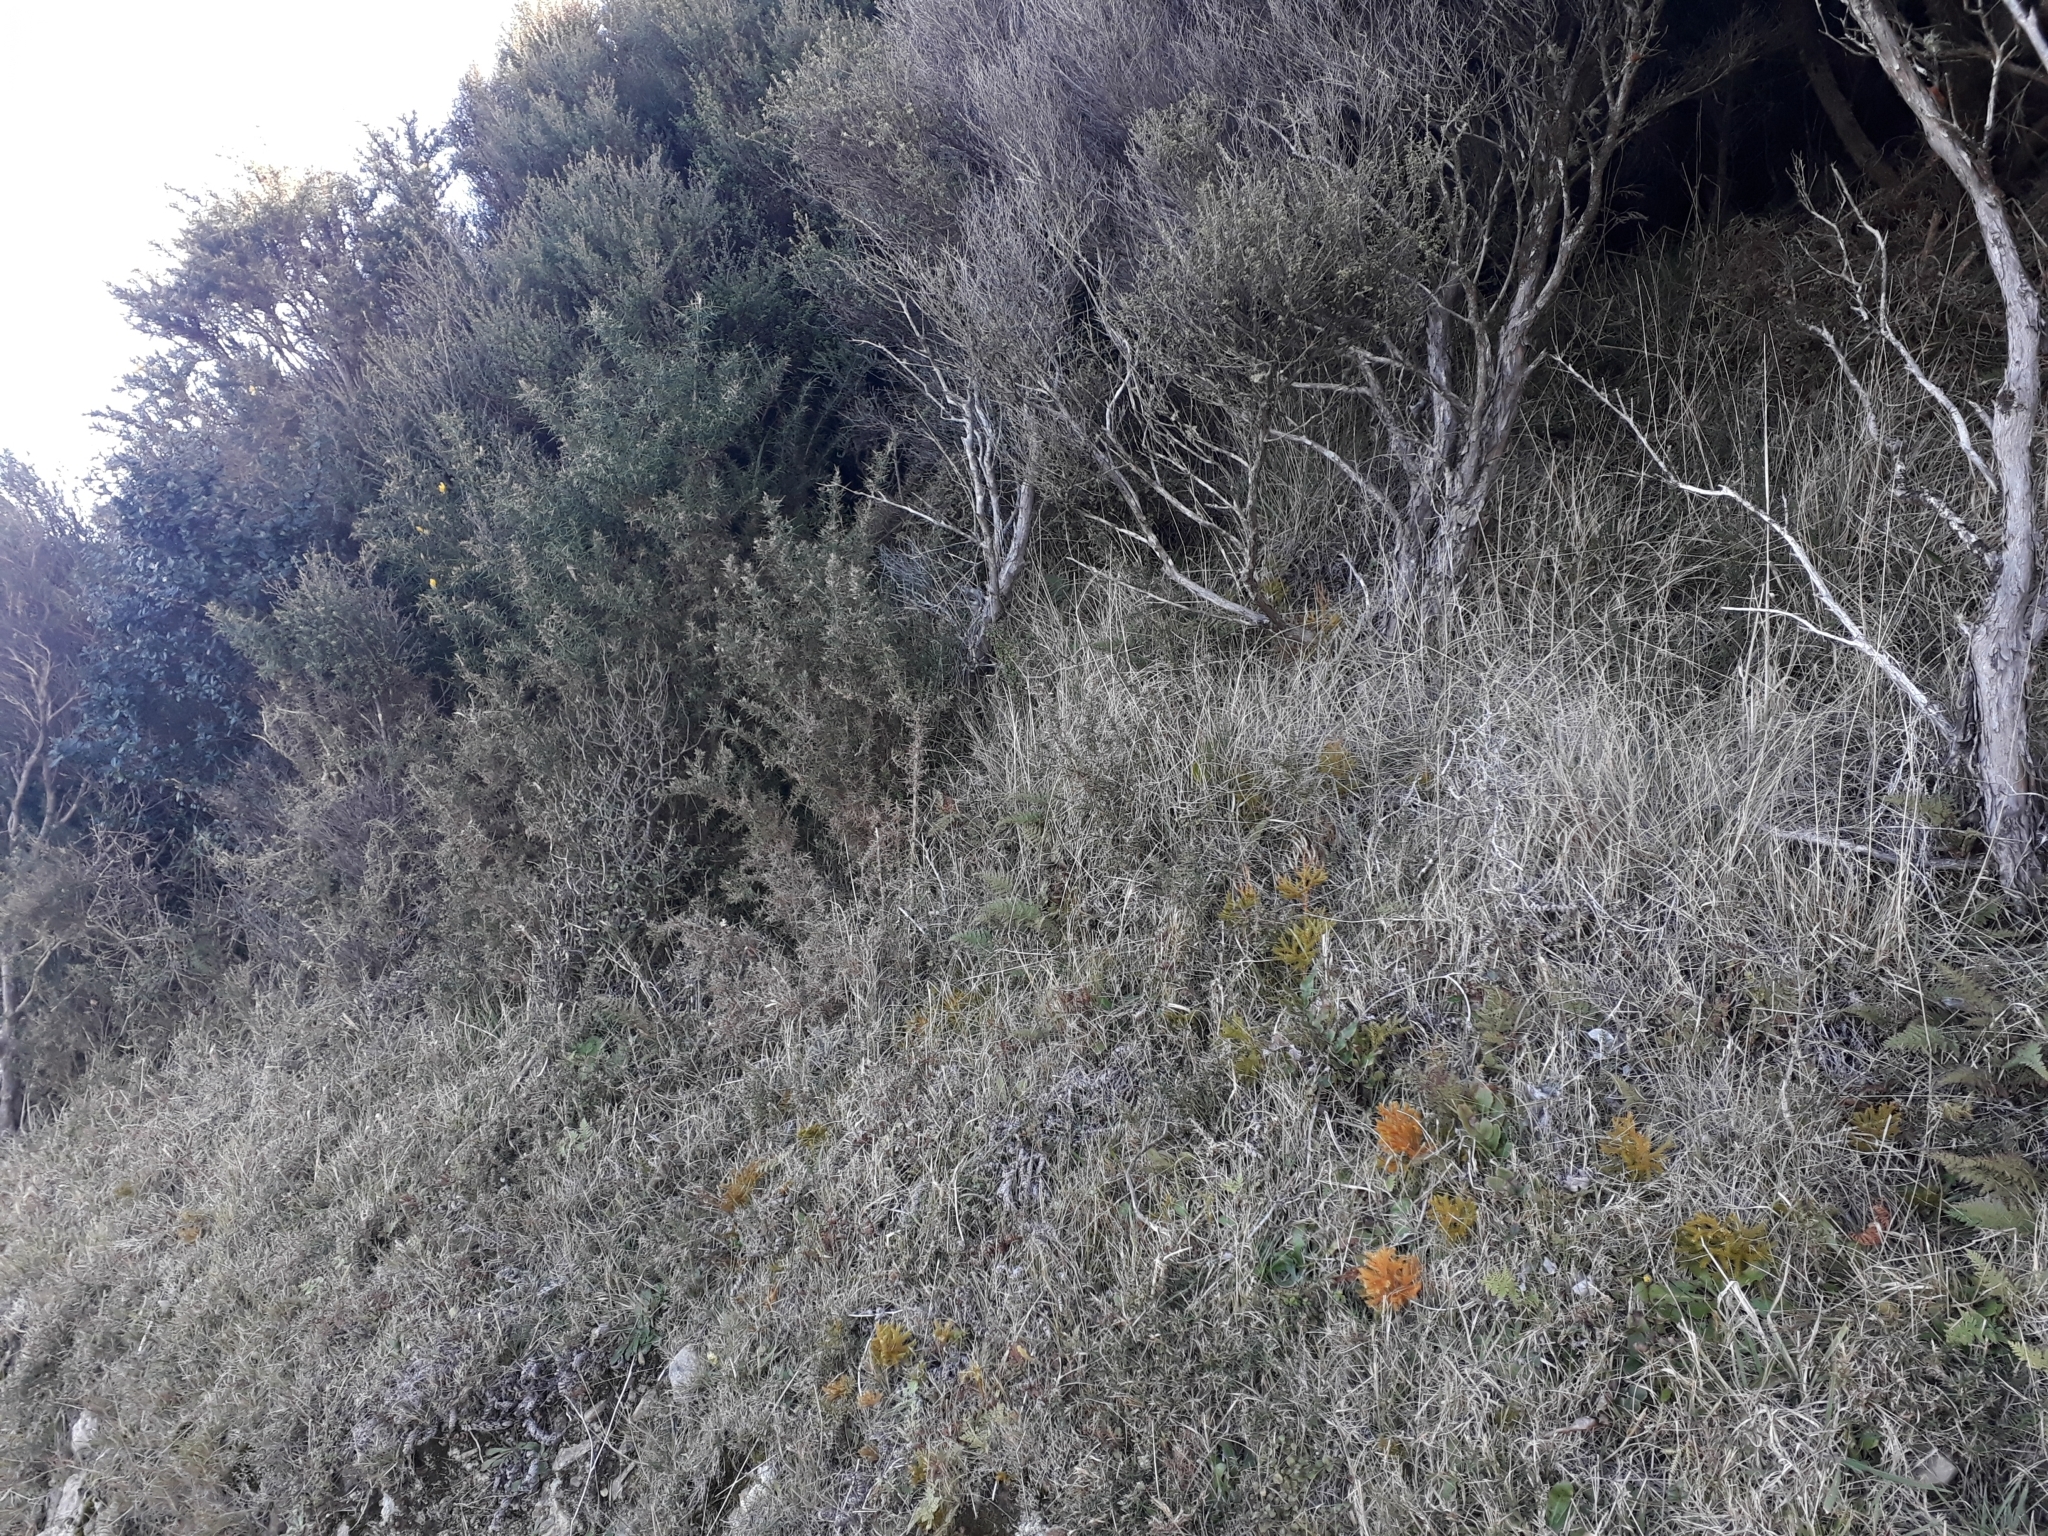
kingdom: Plantae
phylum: Tracheophyta
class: Lycopodiopsida
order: Lycopodiales
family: Lycopodiaceae
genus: Austrolycopodium
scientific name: Austrolycopodium fastigiatum
